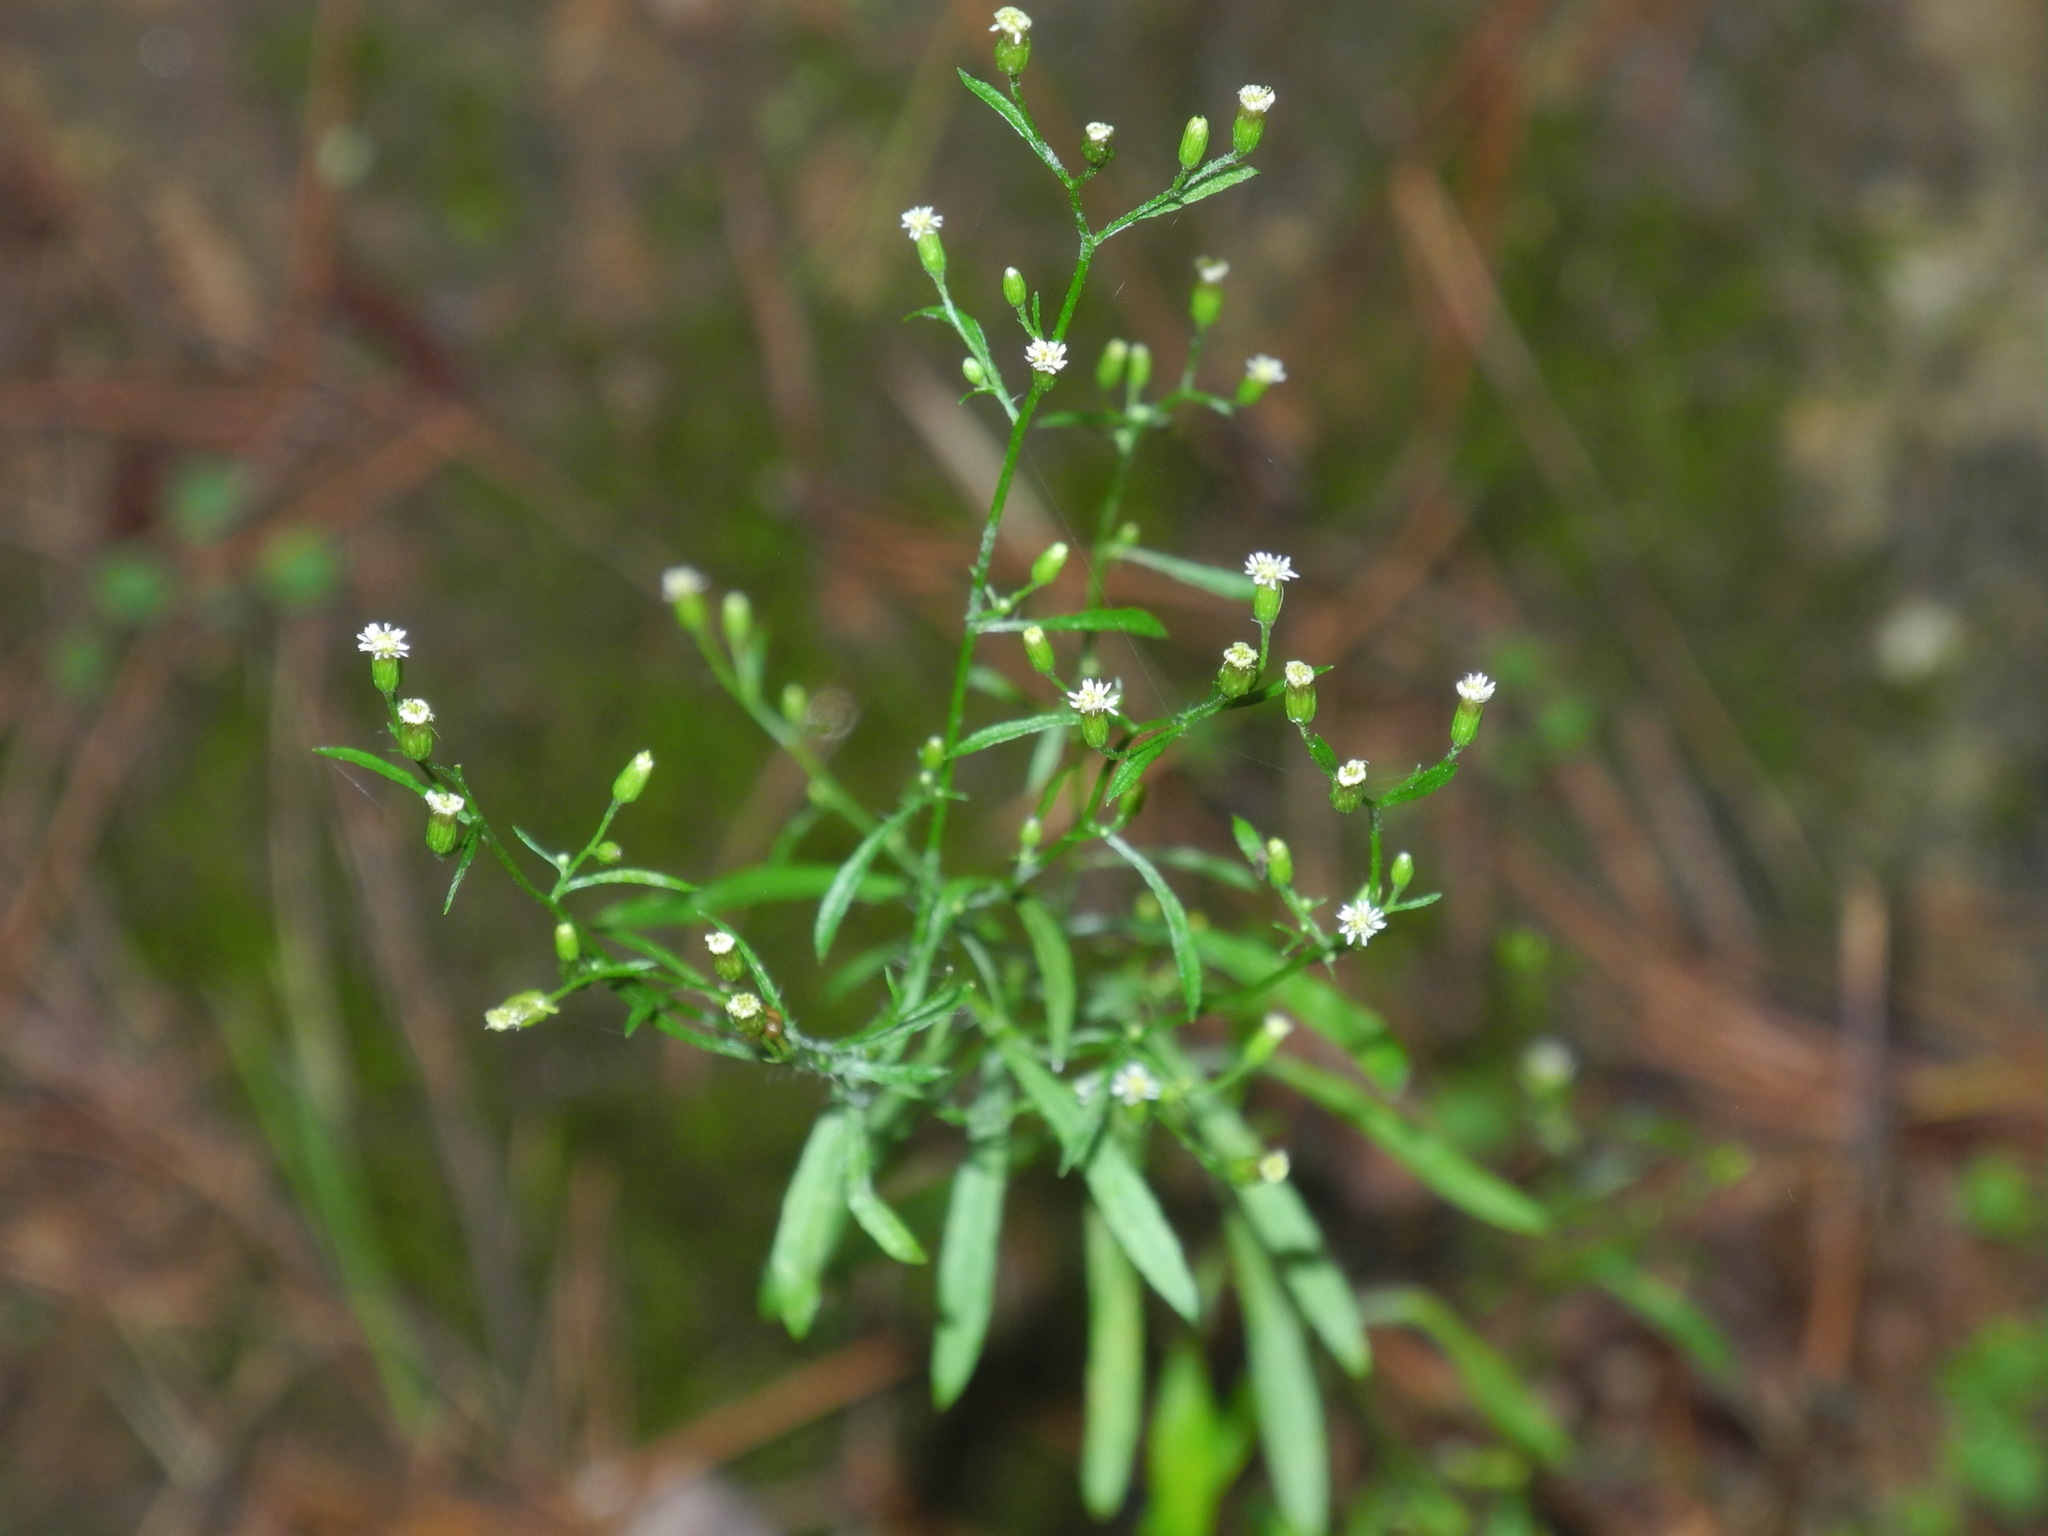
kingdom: Plantae
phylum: Tracheophyta
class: Magnoliopsida
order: Asterales
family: Asteraceae
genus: Erigeron
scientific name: Erigeron canadensis
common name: Canadian fleabane
